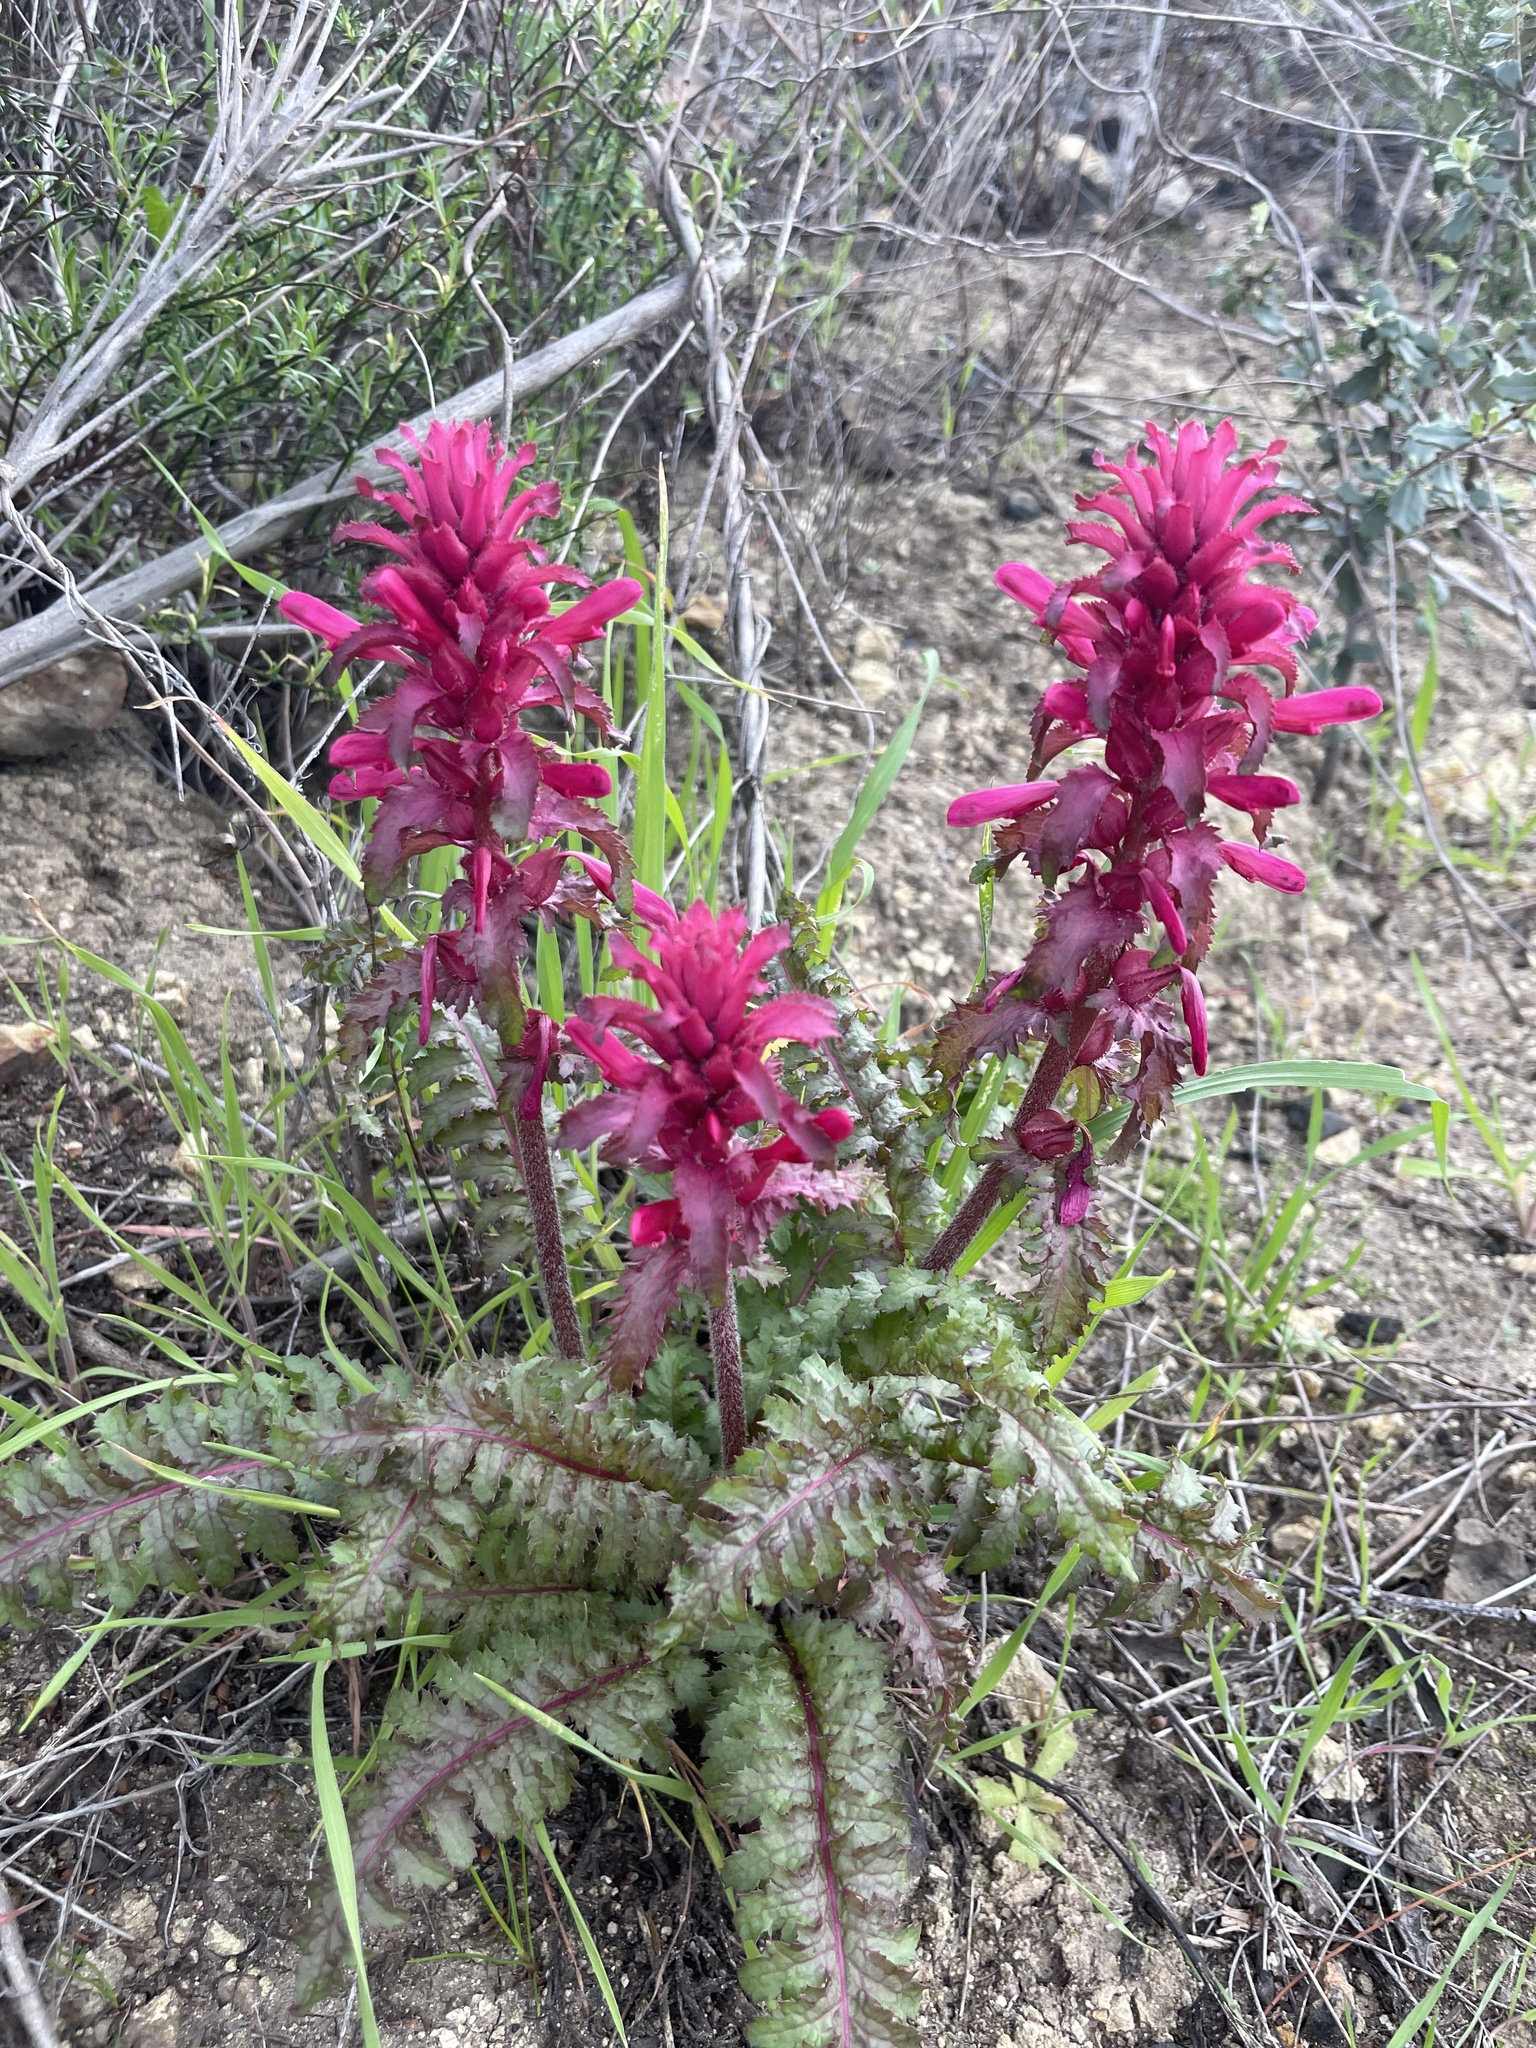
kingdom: Plantae
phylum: Tracheophyta
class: Magnoliopsida
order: Lamiales
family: Orobanchaceae
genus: Pedicularis
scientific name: Pedicularis densiflora
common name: Indian warrior
